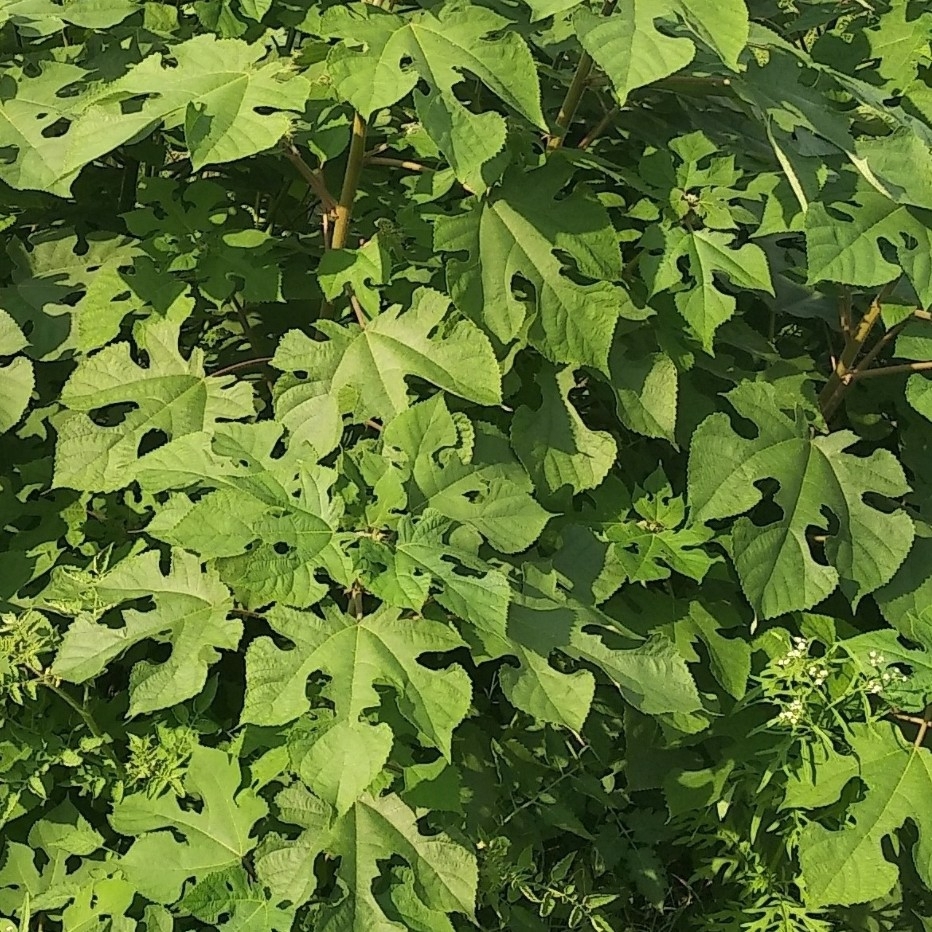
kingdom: Plantae
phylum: Tracheophyta
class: Magnoliopsida
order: Rosales
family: Moraceae
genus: Broussonetia
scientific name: Broussonetia papyrifera
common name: Paper mulberry
